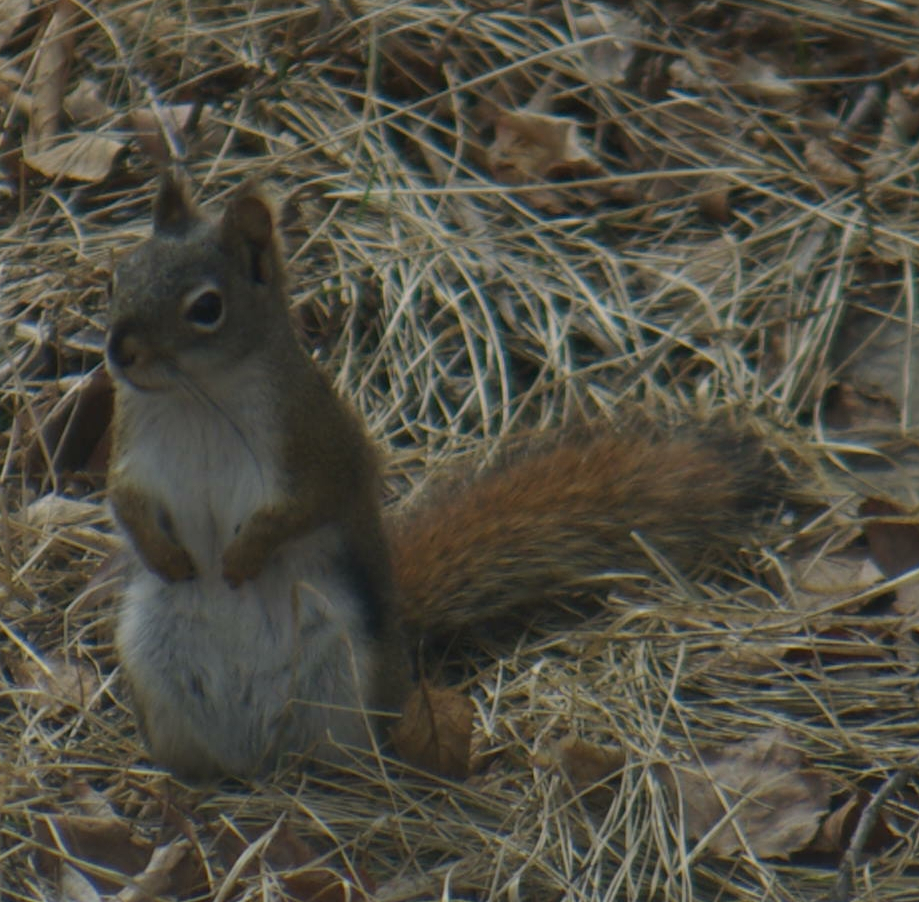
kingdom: Animalia
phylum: Chordata
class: Mammalia
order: Rodentia
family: Sciuridae
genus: Tamiasciurus
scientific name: Tamiasciurus hudsonicus
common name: Red squirrel
